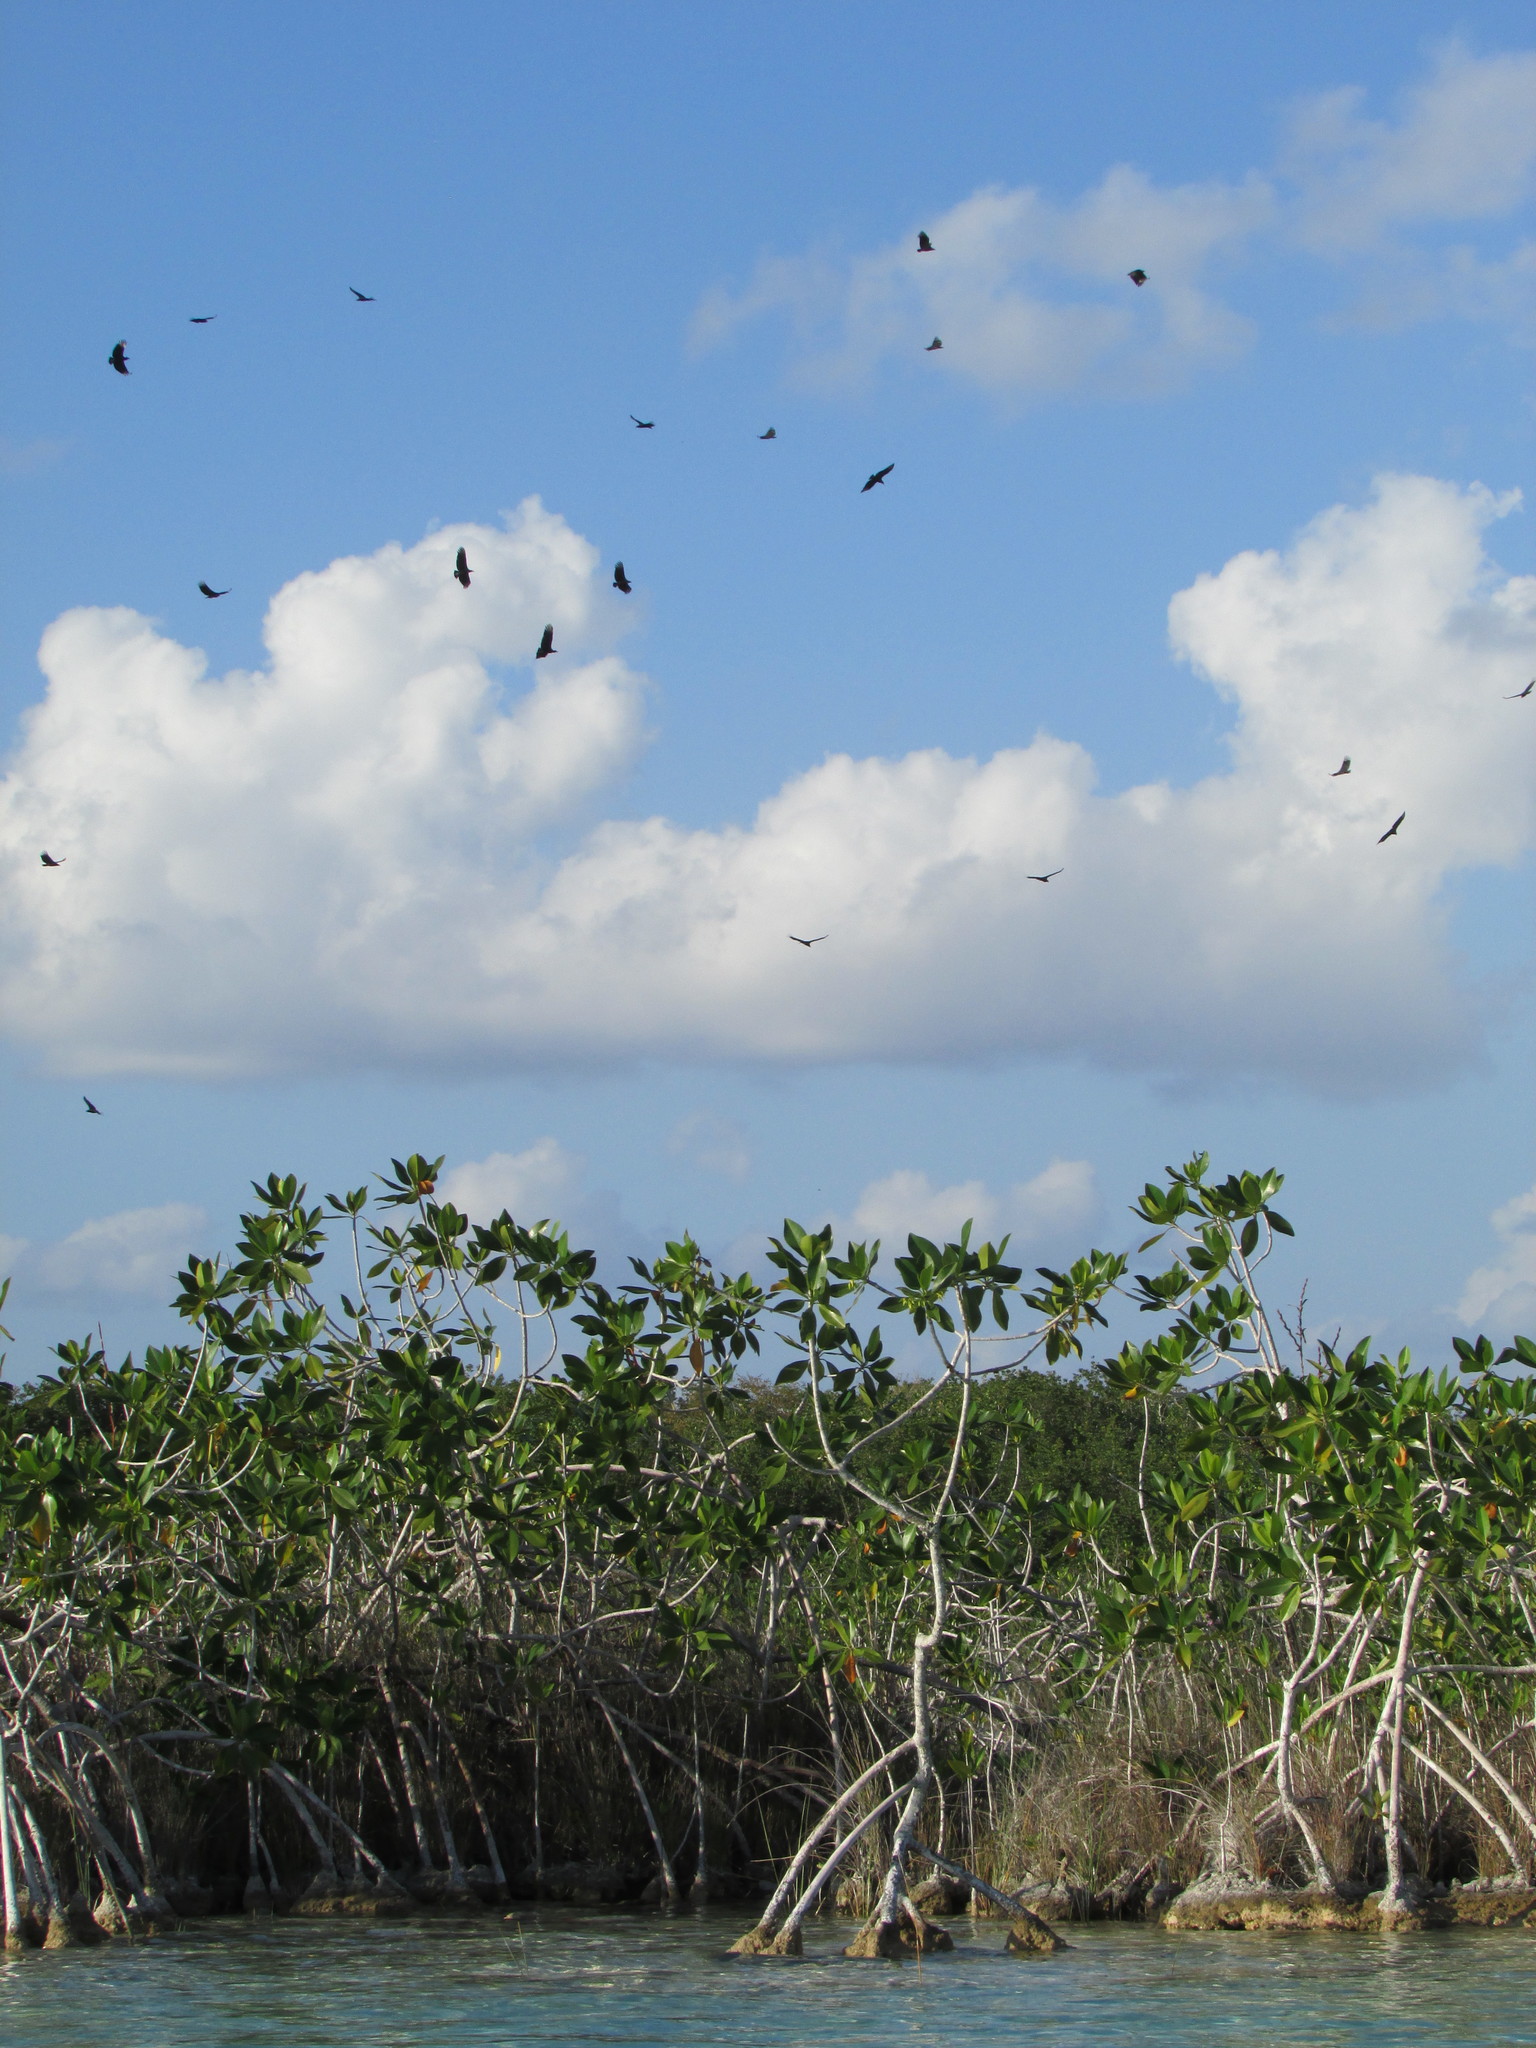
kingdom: Animalia
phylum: Chordata
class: Aves
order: Accipitriformes
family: Cathartidae
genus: Coragyps
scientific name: Coragyps atratus
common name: Black vulture
